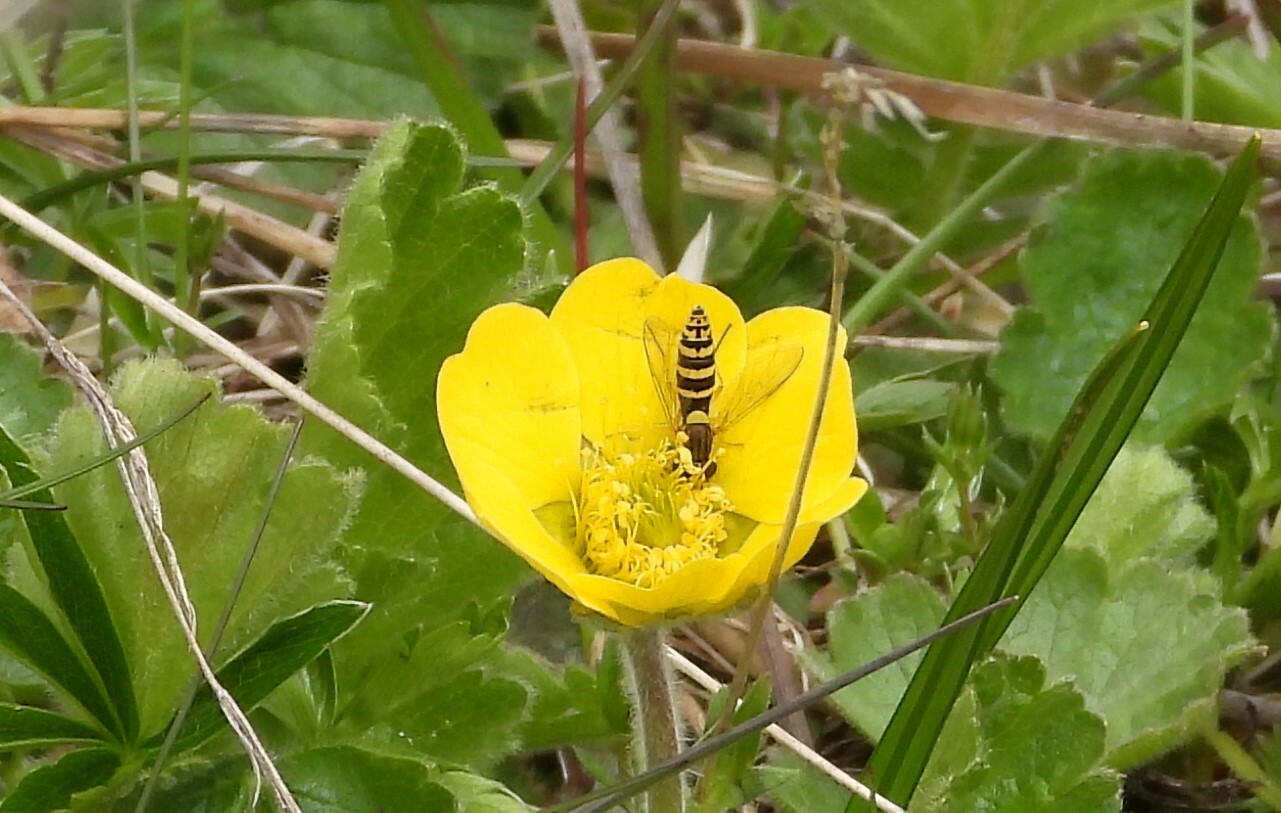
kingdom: Animalia
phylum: Arthropoda
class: Insecta
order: Diptera
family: Syrphidae
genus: Sphaerophoria
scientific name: Sphaerophoria
